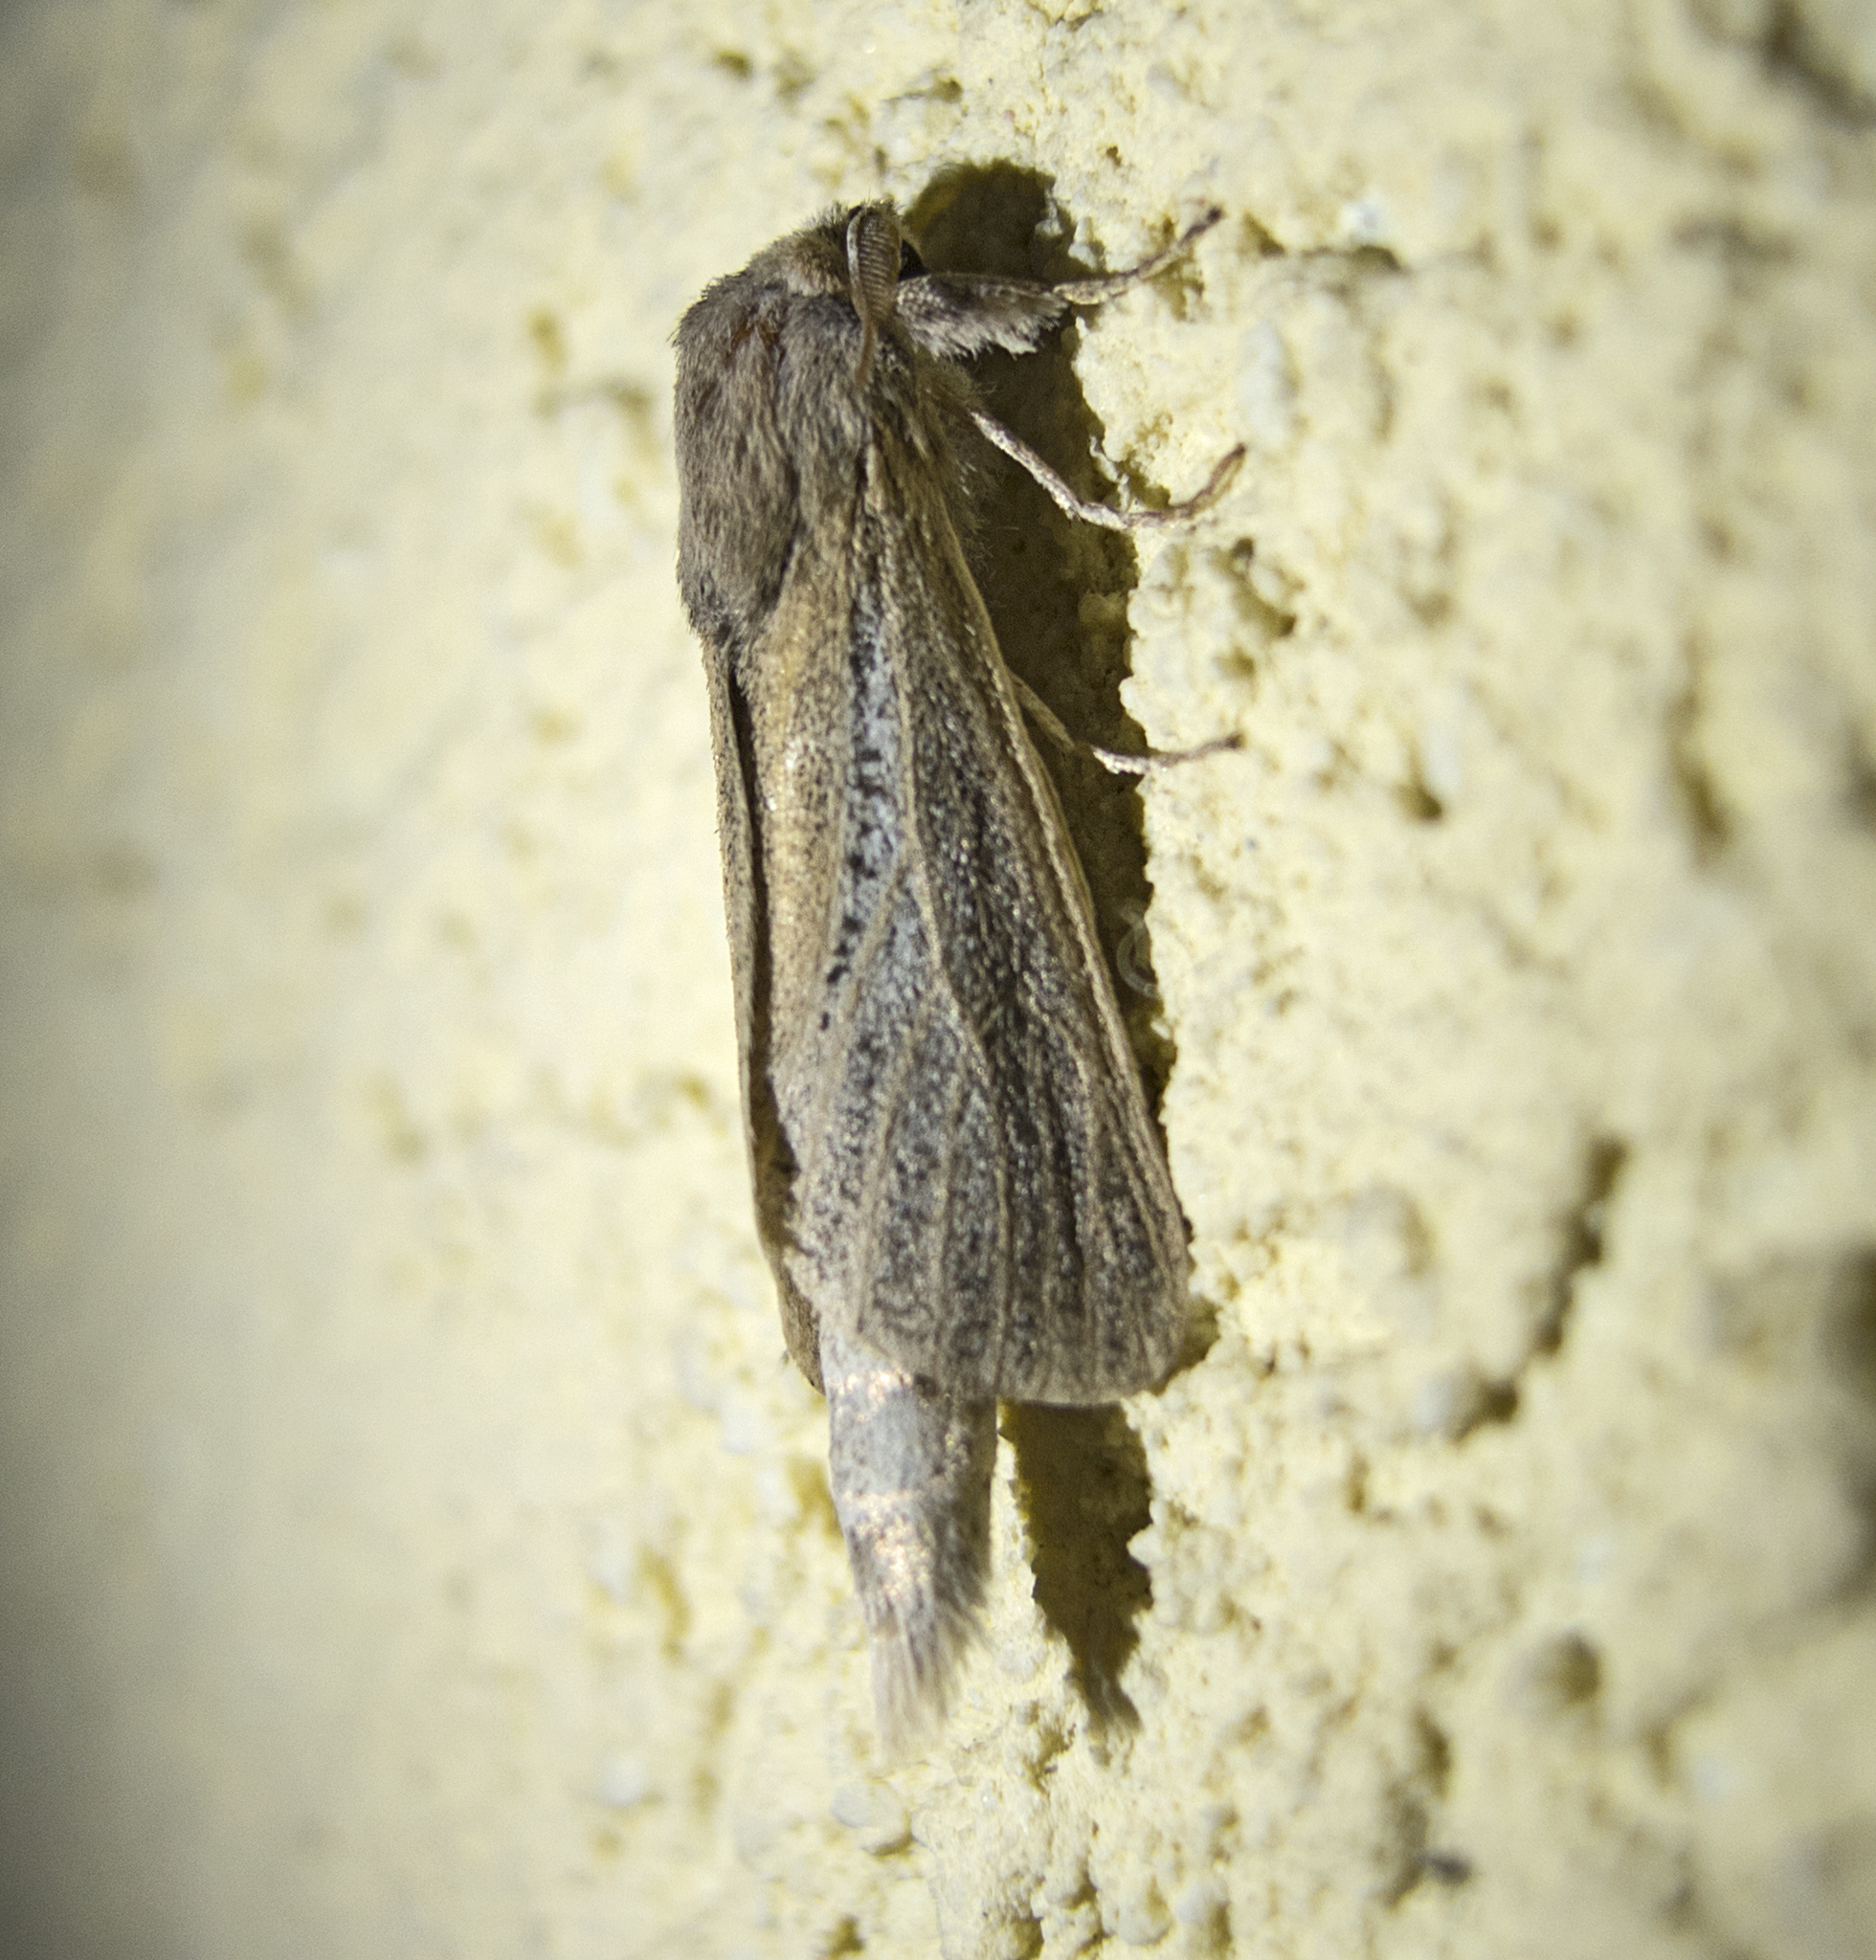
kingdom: Animalia
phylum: Arthropoda
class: Insecta
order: Lepidoptera
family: Cossidae
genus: Phragmataecia
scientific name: Phragmataecia castaneae
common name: Reed leopard
